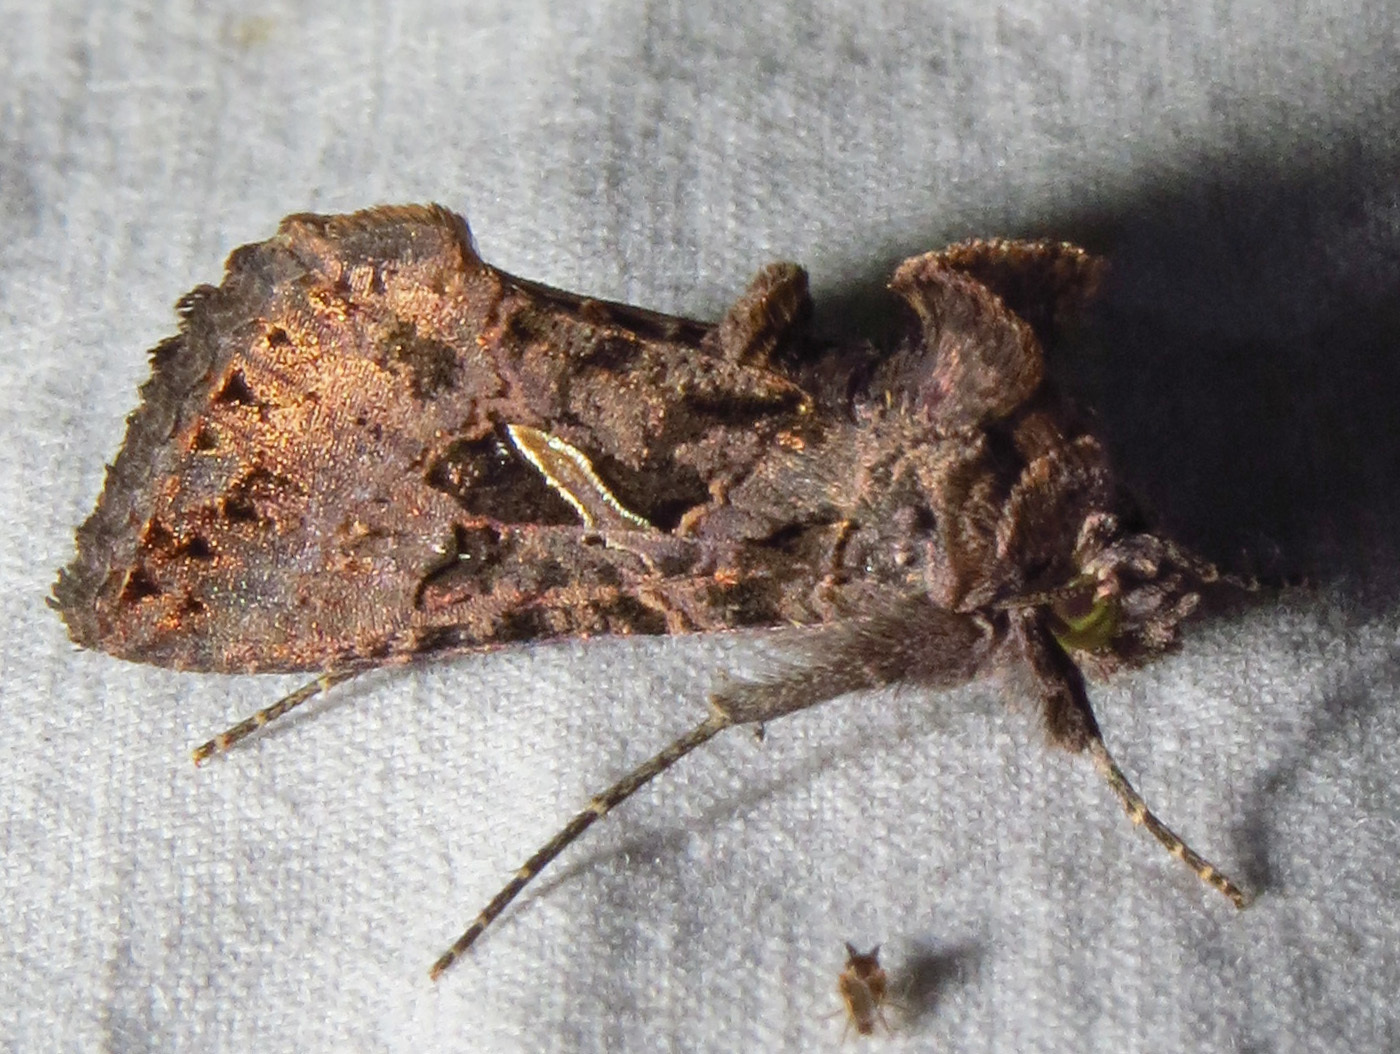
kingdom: Animalia
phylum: Arthropoda
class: Insecta
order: Lepidoptera
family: Noctuidae
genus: Ctenoplusia
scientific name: Ctenoplusia oxygramma
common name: Sharp-stigma looper moth
